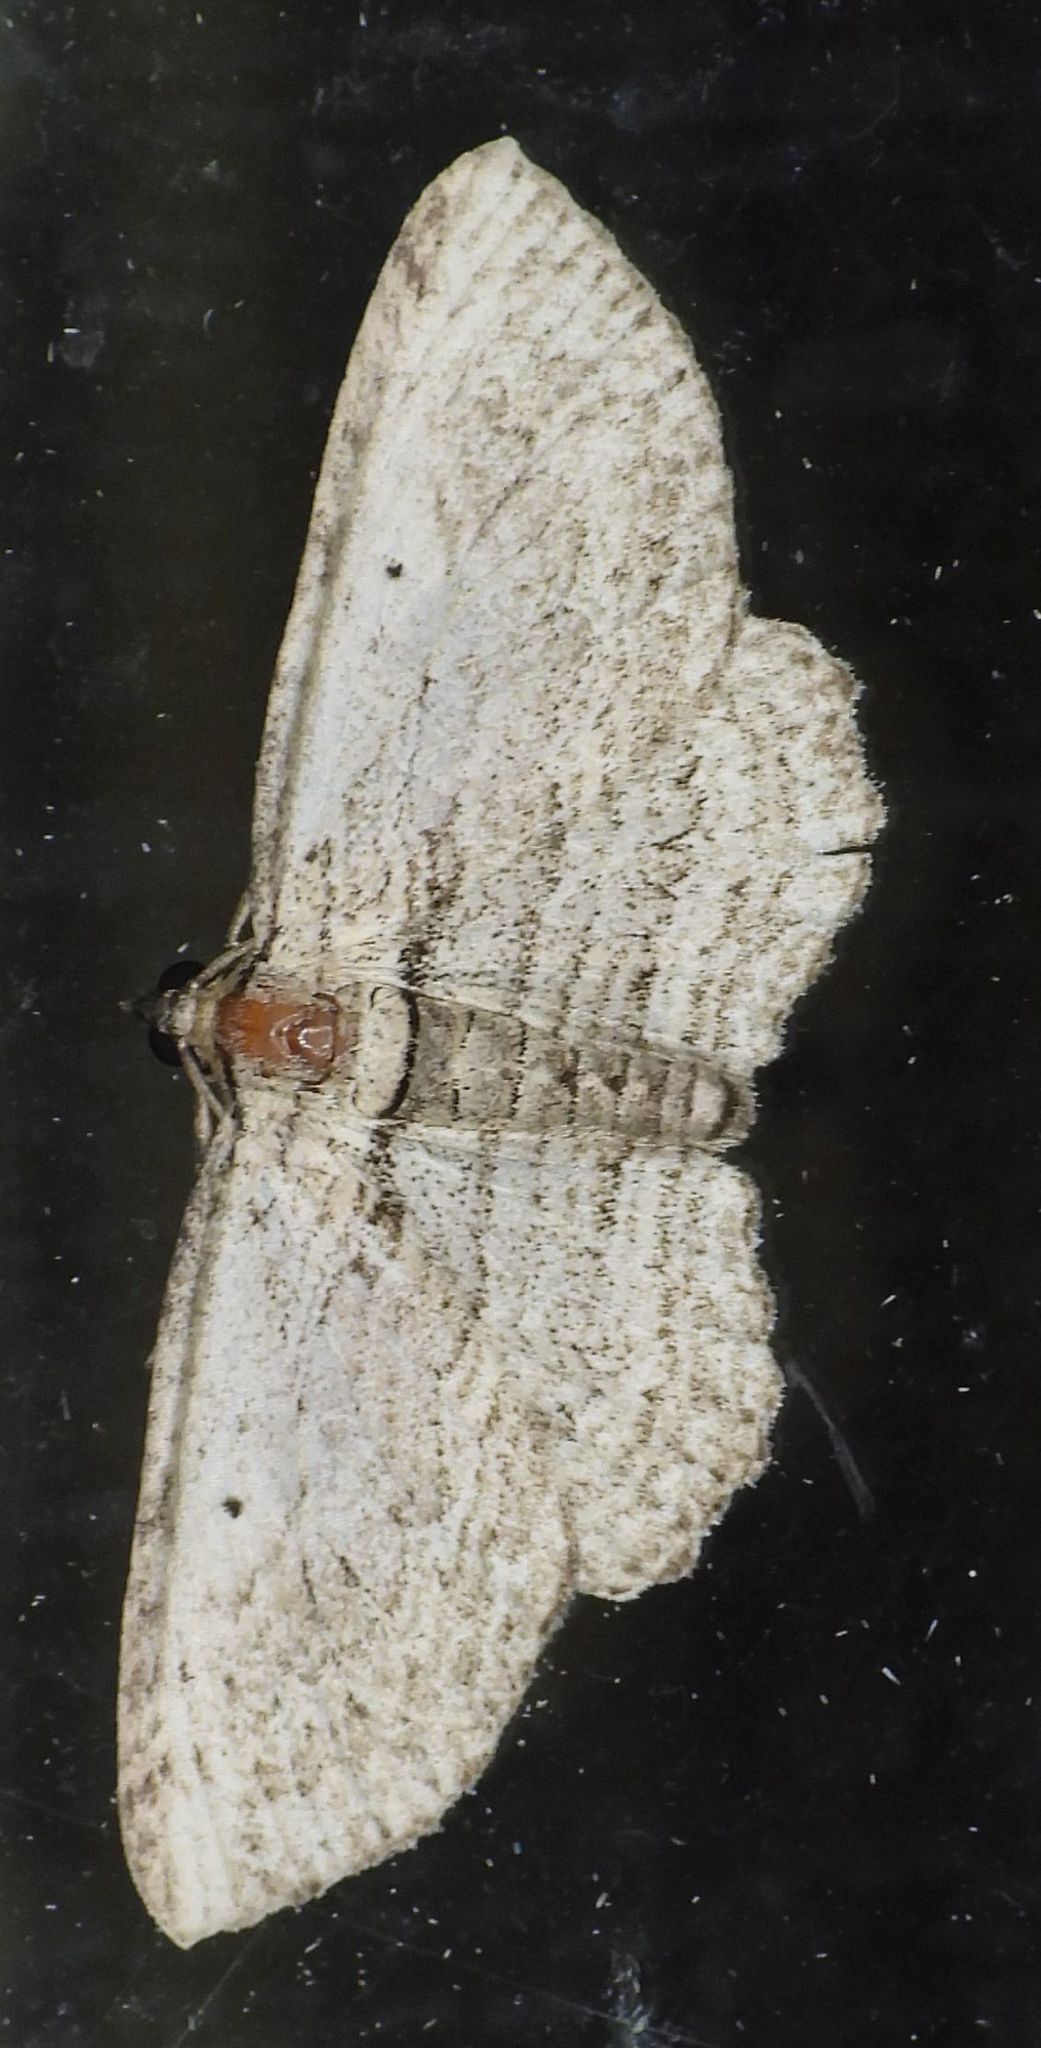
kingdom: Animalia
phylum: Arthropoda
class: Insecta
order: Lepidoptera
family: Geometridae
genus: Horisme
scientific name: Horisme intestinata
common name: Brown bark carpet
